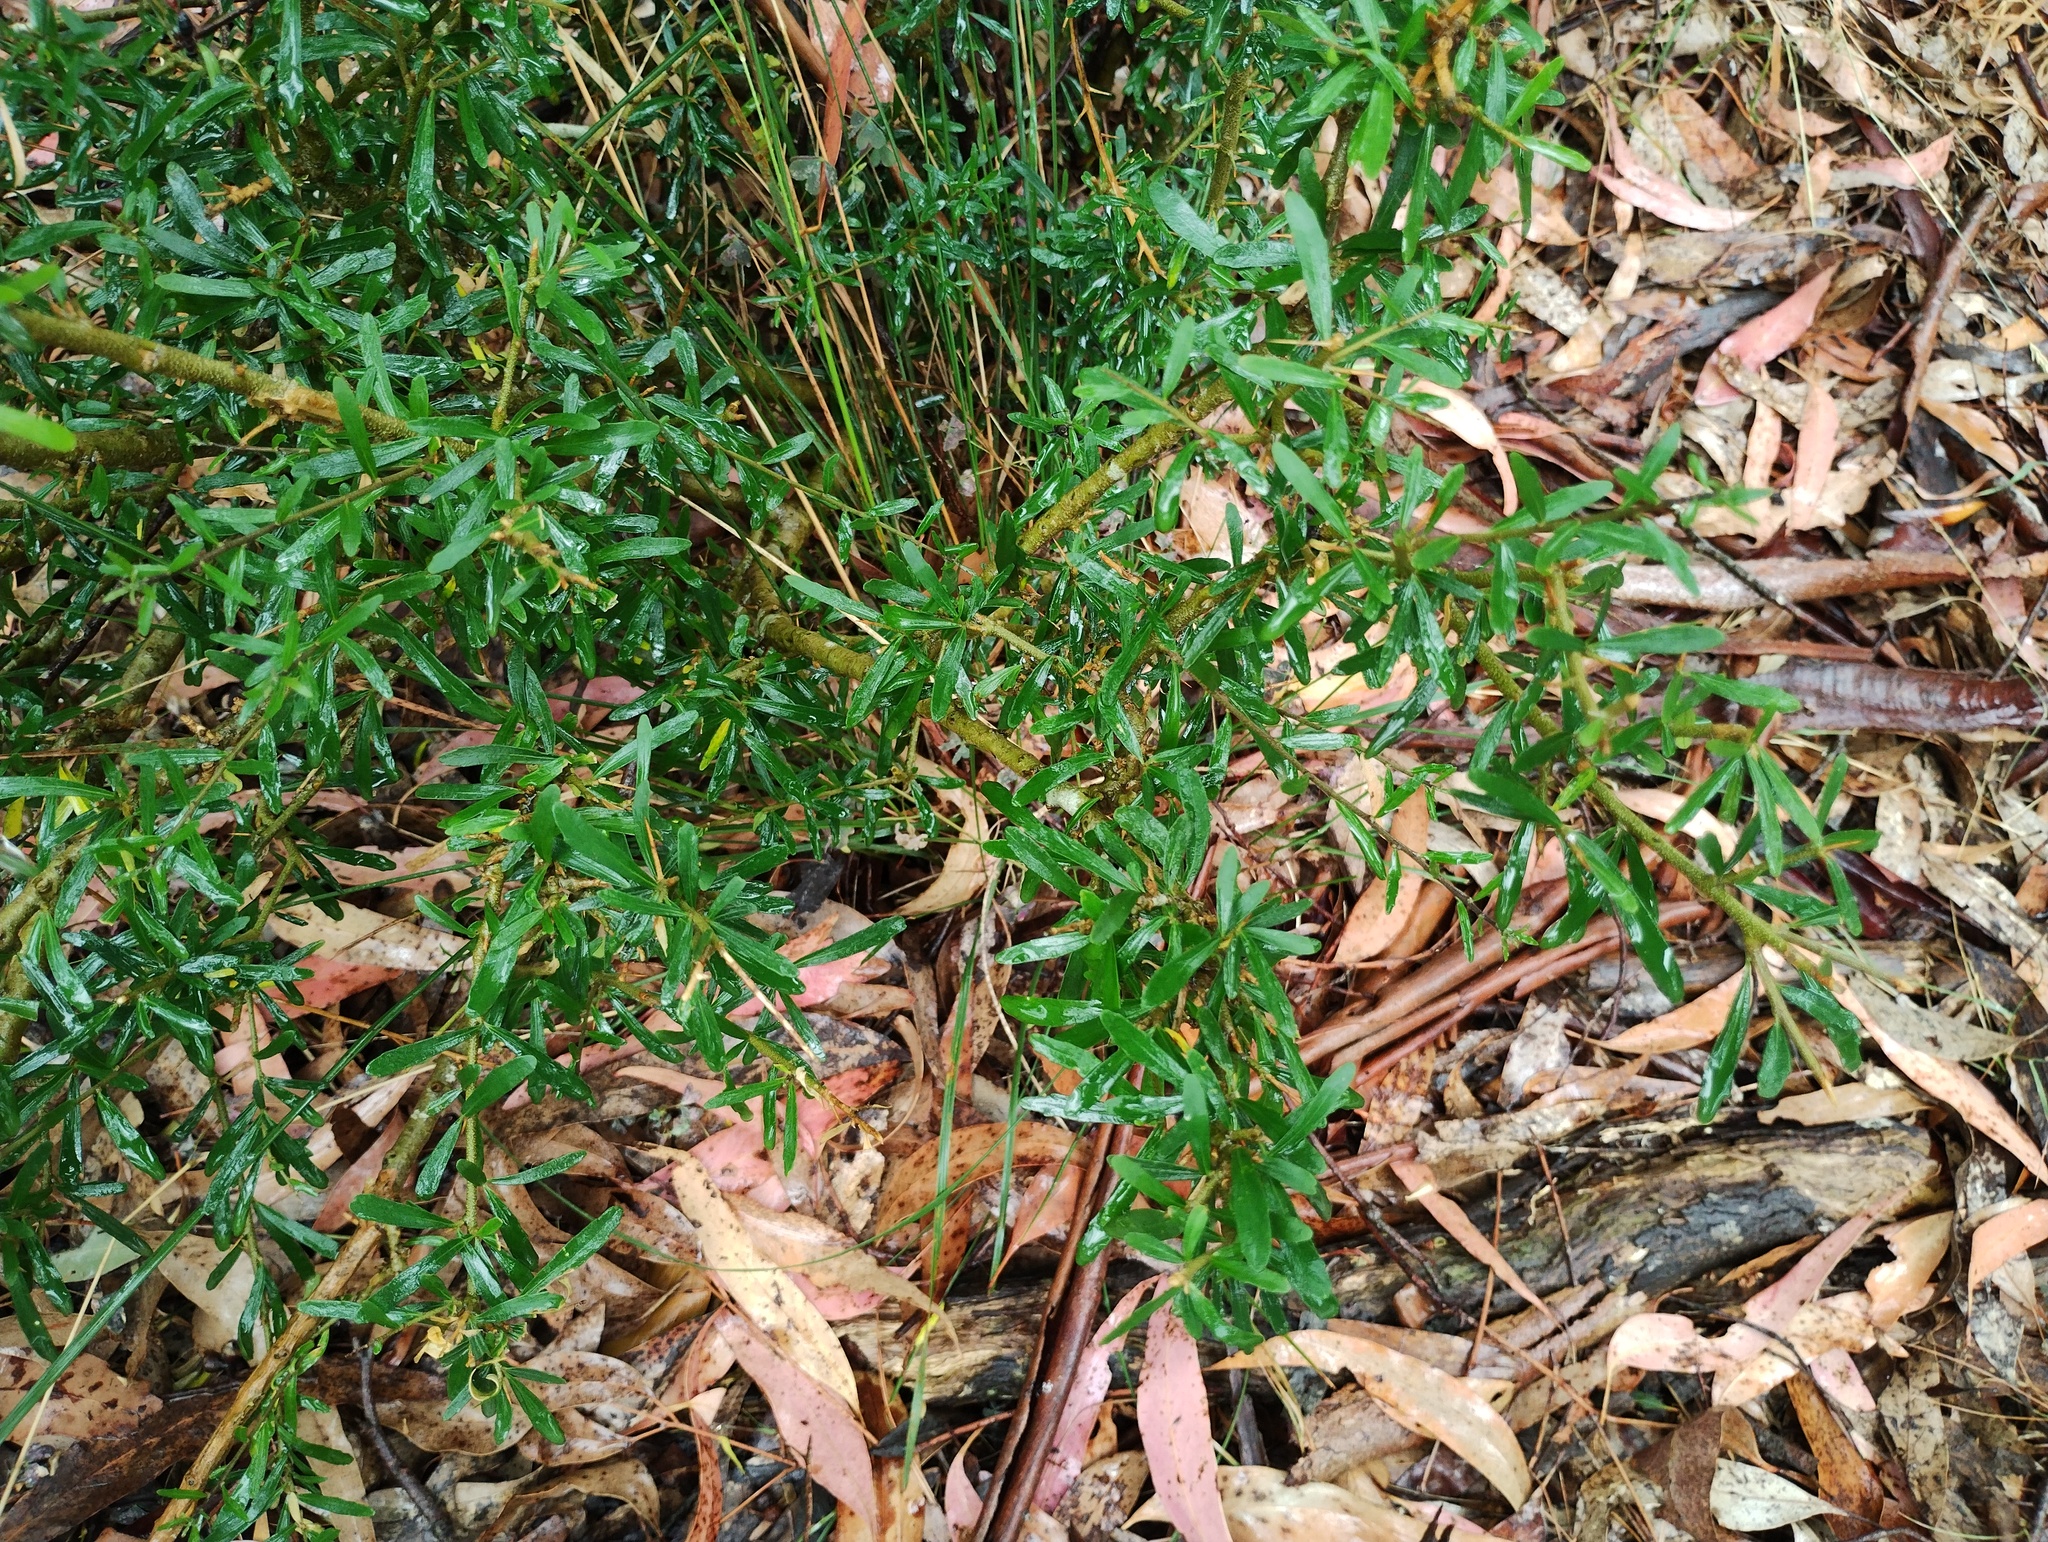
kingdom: Plantae
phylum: Tracheophyta
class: Magnoliopsida
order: Malpighiales
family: Violaceae
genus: Melicytus
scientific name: Melicytus dentatus
